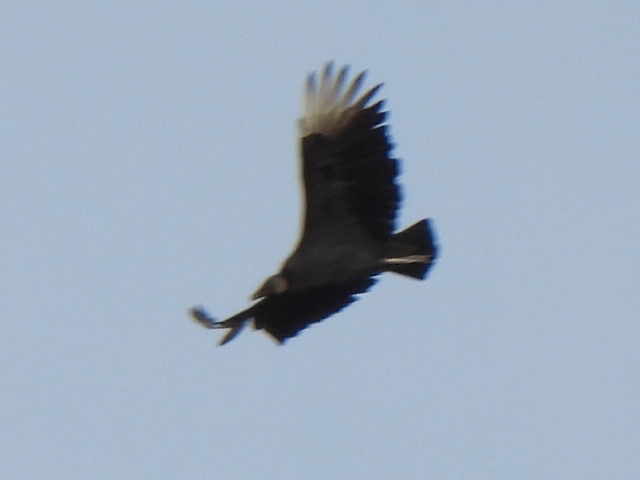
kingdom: Animalia
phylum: Chordata
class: Aves
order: Accipitriformes
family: Cathartidae
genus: Coragyps
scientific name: Coragyps atratus
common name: Black vulture
